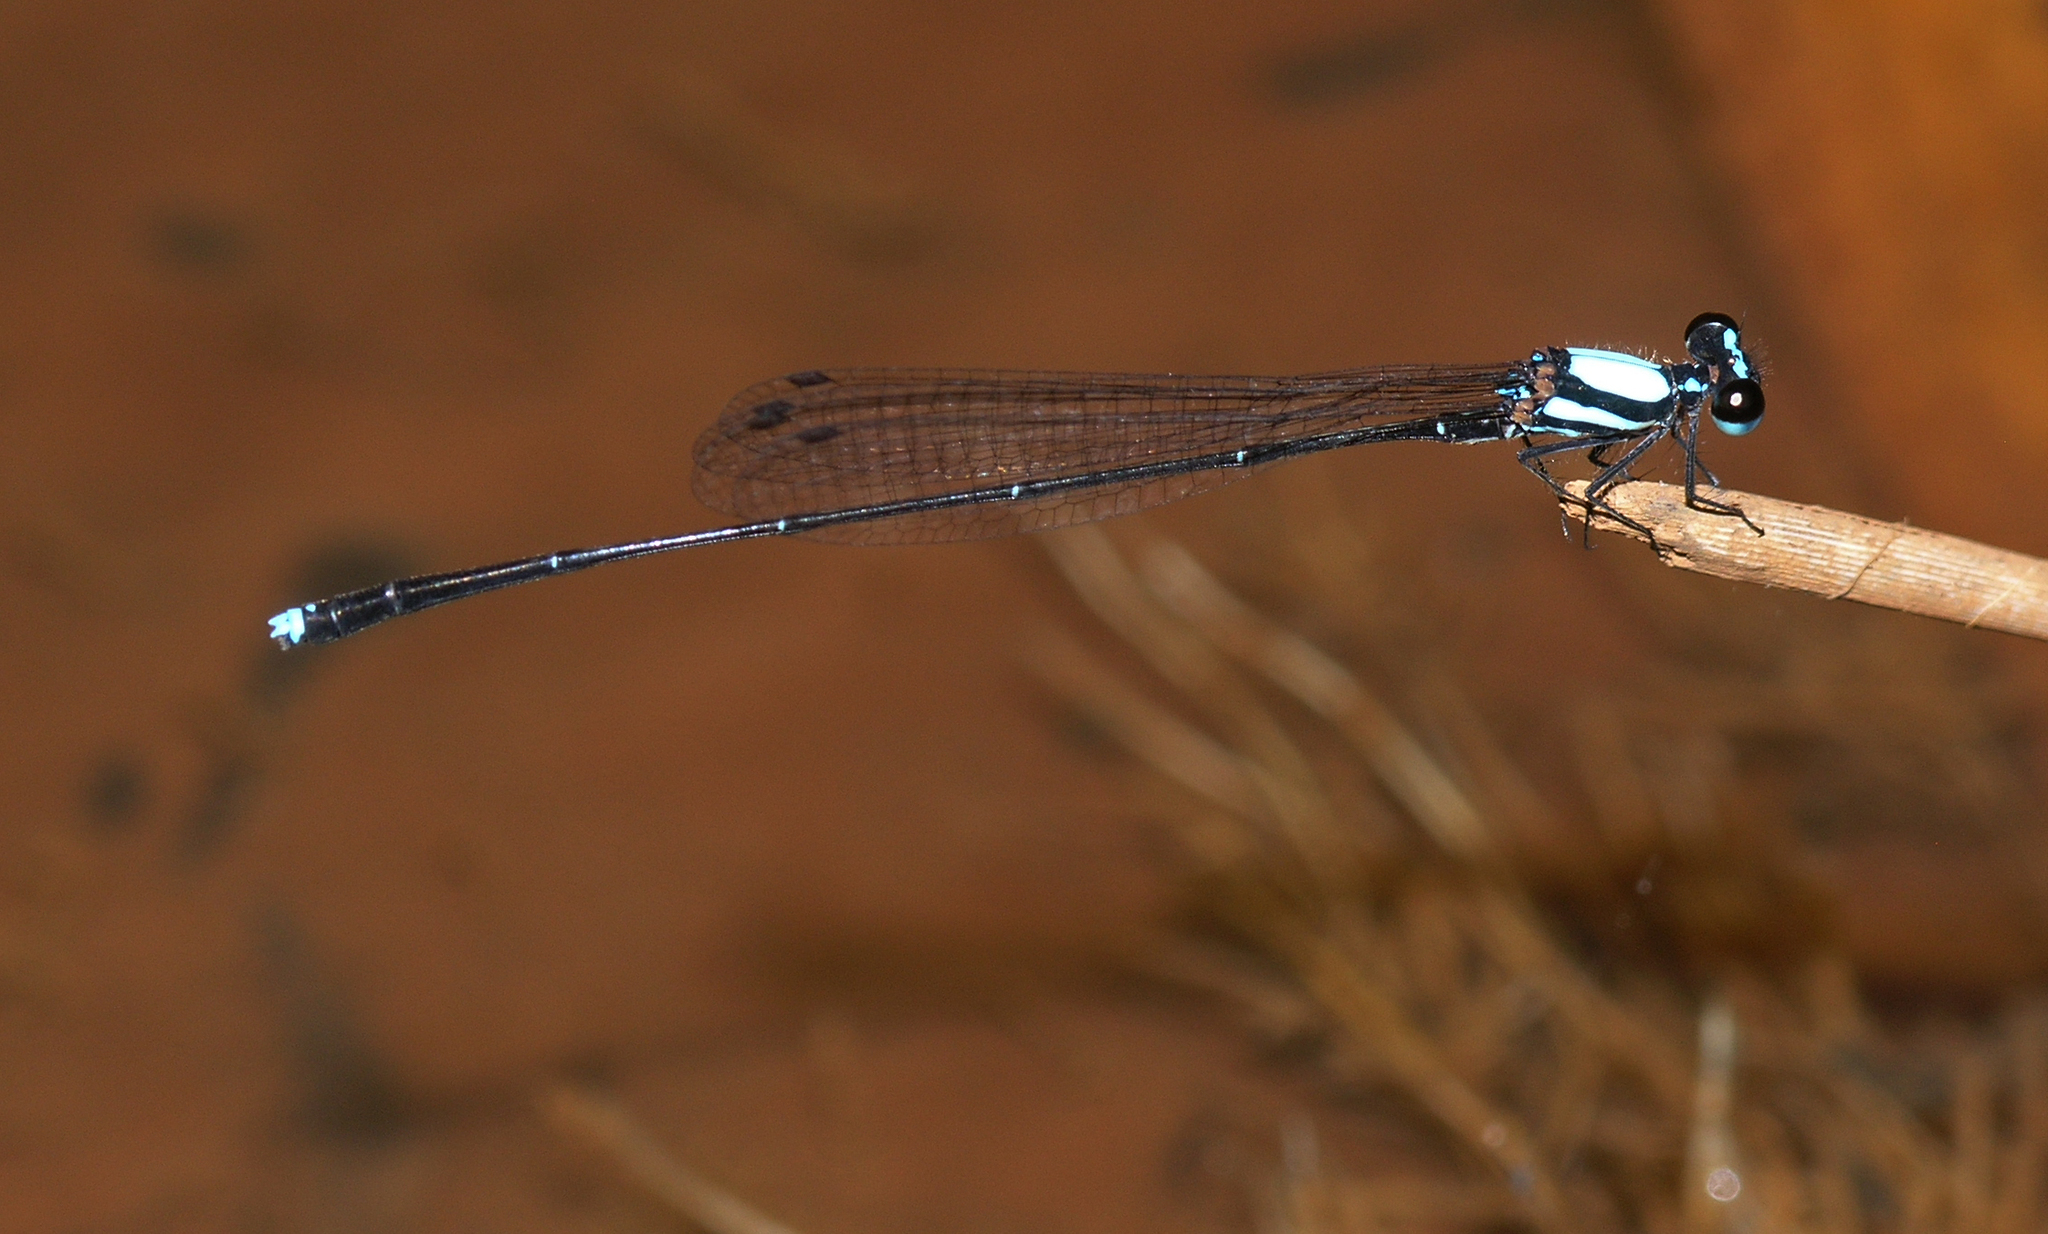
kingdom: Animalia
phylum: Arthropoda
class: Insecta
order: Odonata
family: Platycnemididae
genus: Prodasineura
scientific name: Prodasineura doisuthepensis
